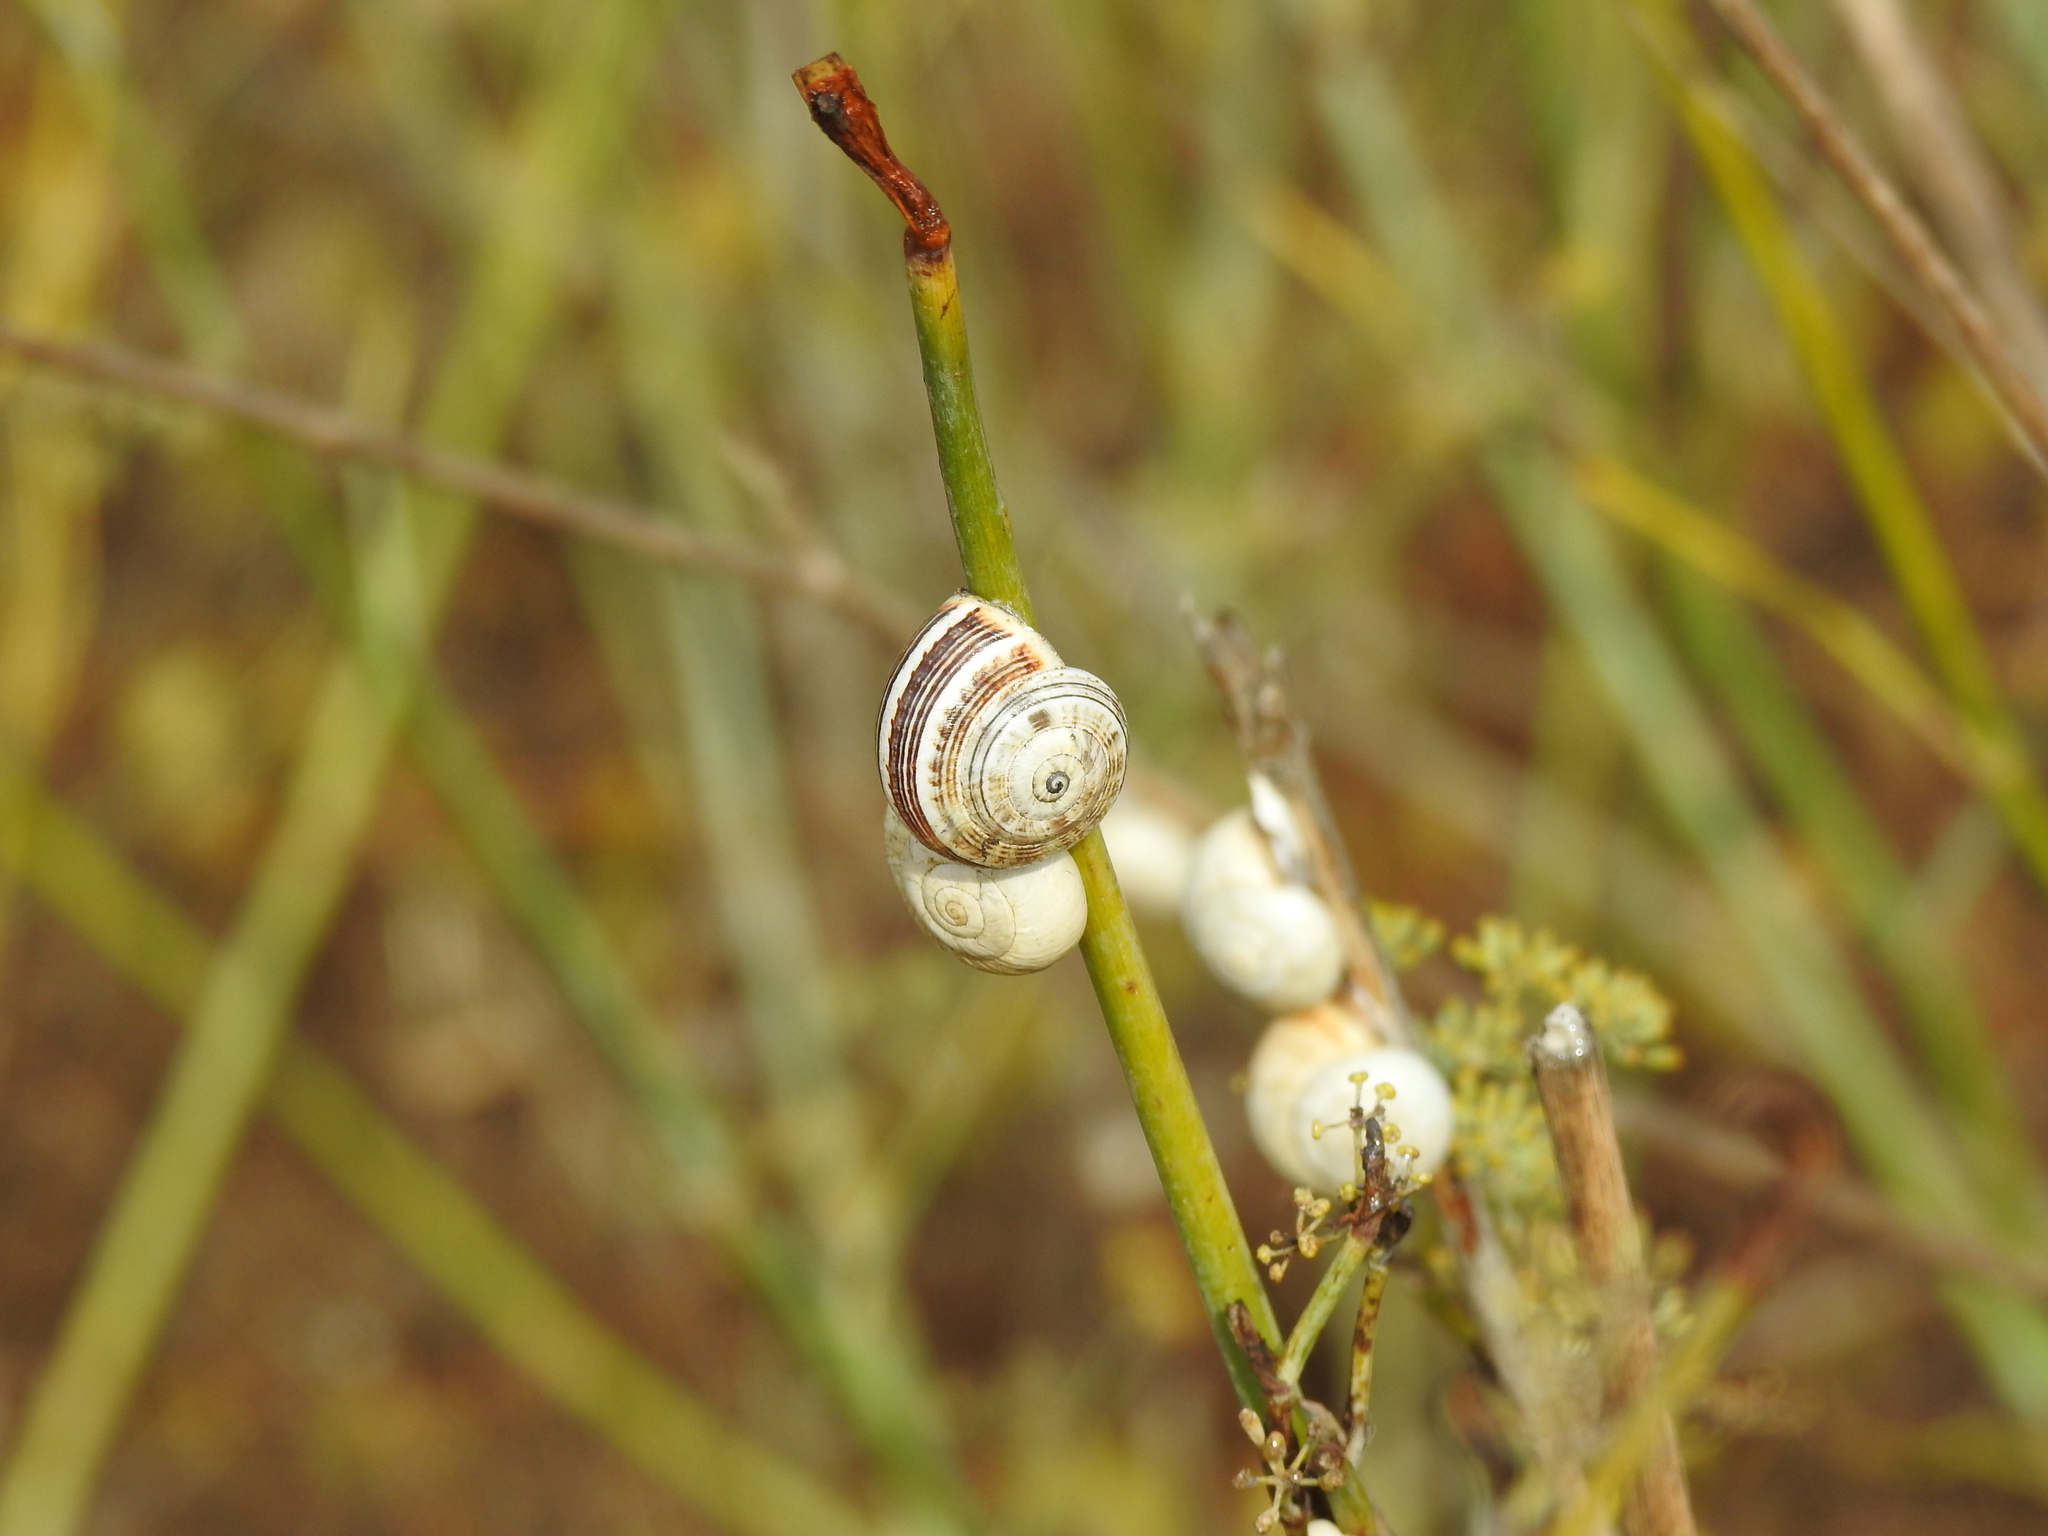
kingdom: Animalia
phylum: Mollusca
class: Gastropoda
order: Stylommatophora
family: Helicidae
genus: Theba
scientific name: Theba pisana
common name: White snail
